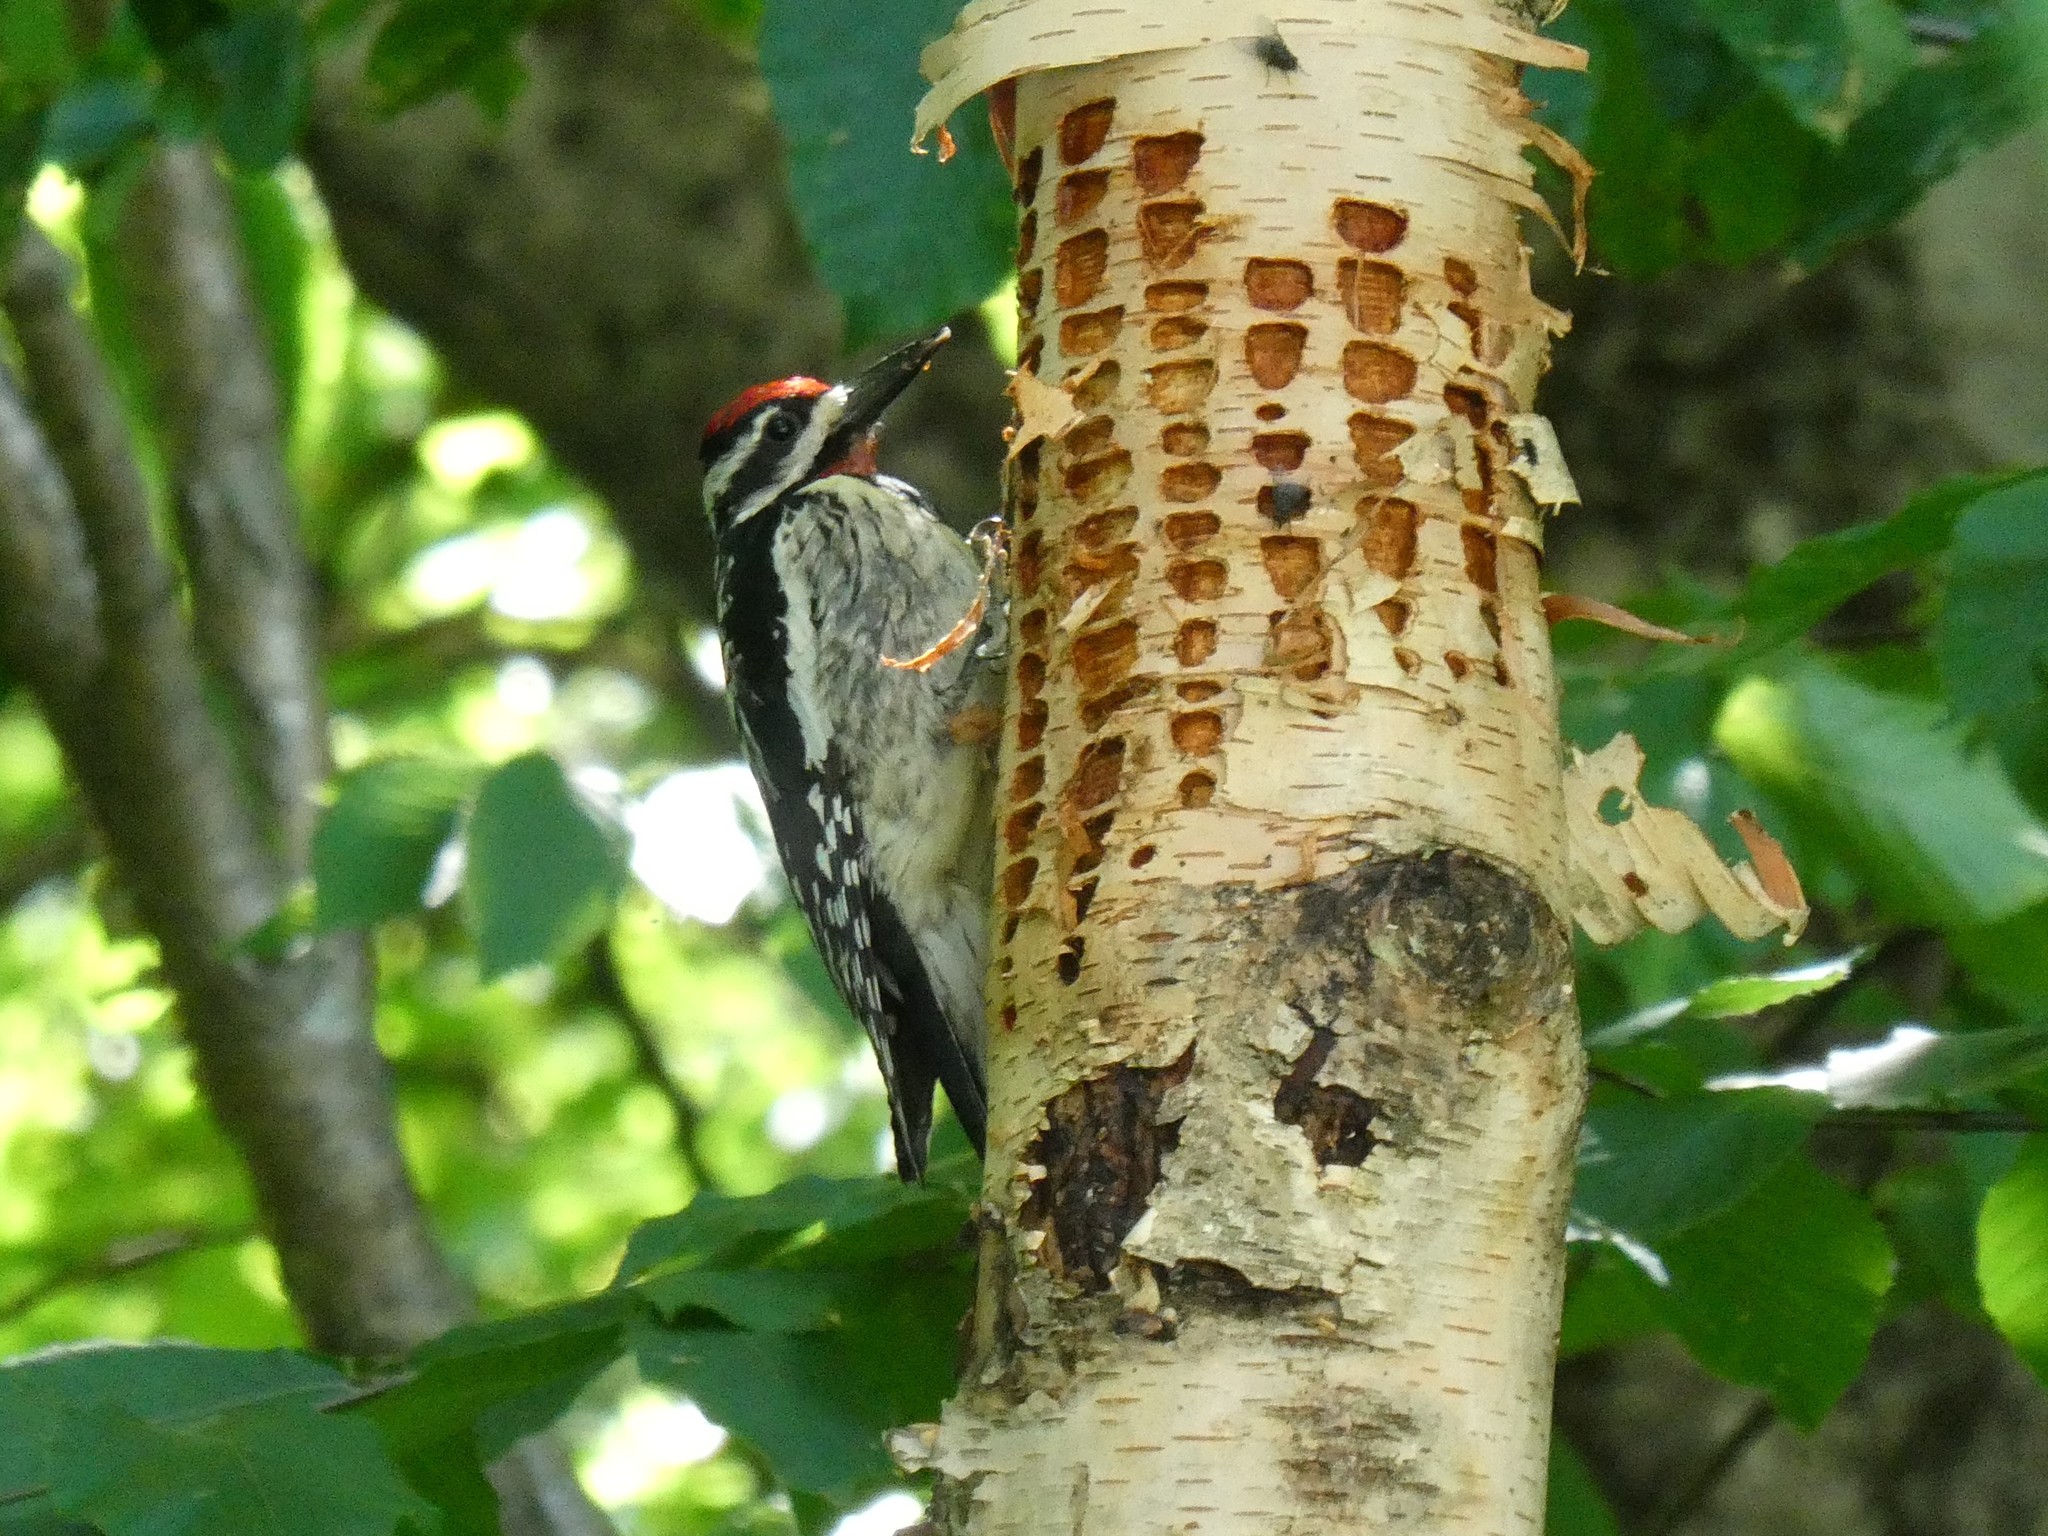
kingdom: Animalia
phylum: Chordata
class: Aves
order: Piciformes
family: Picidae
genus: Sphyrapicus
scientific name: Sphyrapicus varius
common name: Yellow-bellied sapsucker
